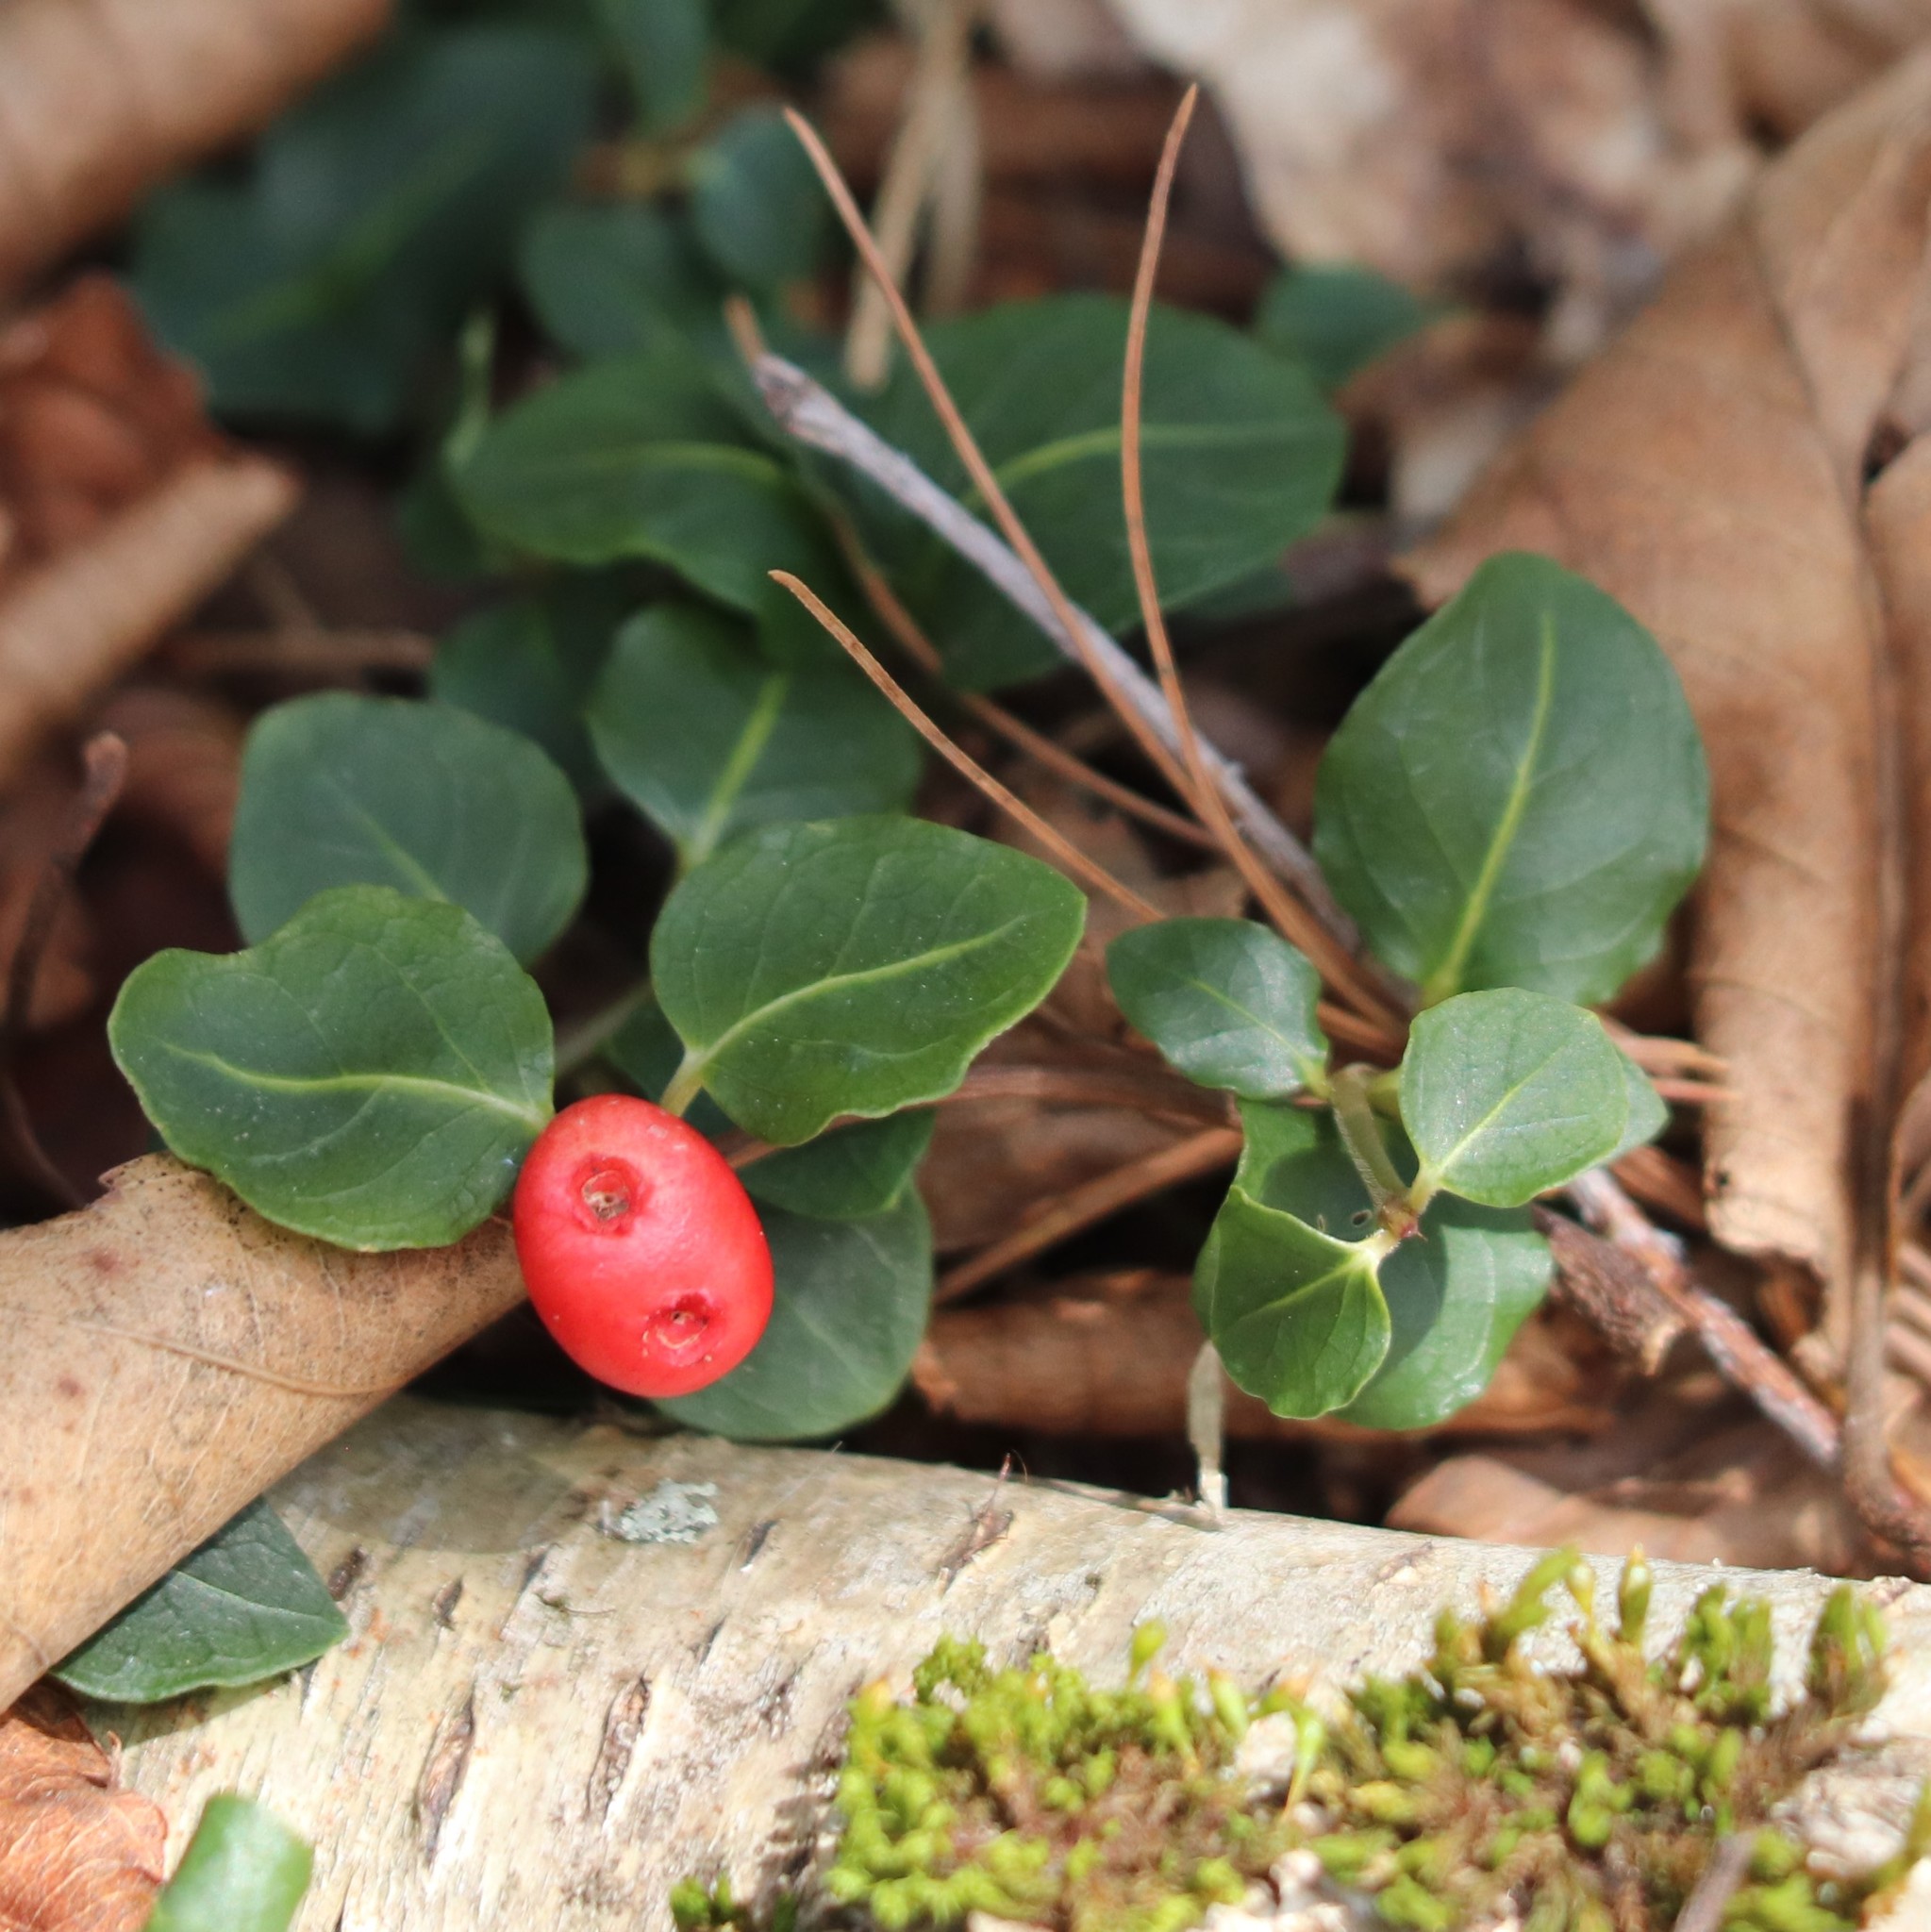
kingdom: Plantae
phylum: Tracheophyta
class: Magnoliopsida
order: Gentianales
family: Rubiaceae
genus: Mitchella
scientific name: Mitchella repens
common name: Partridge-berry
